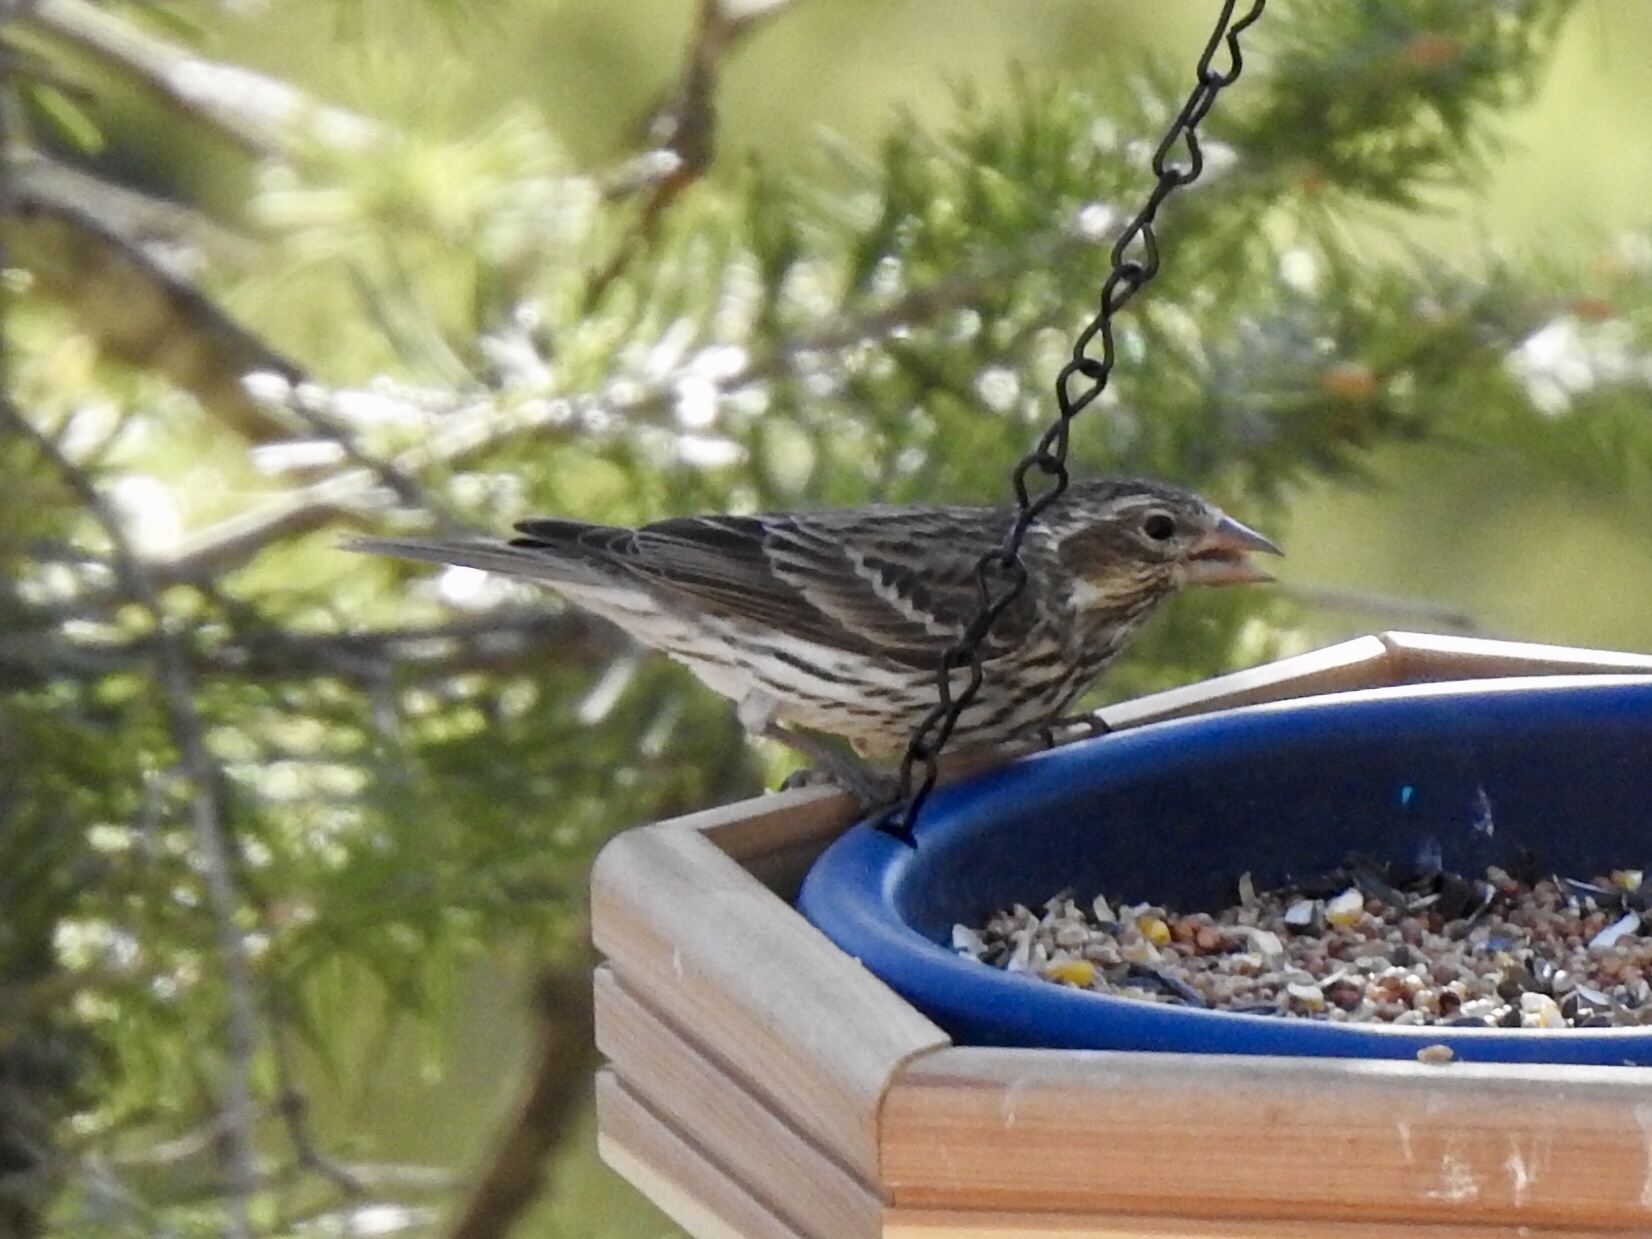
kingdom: Animalia
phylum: Chordata
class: Aves
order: Passeriformes
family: Fringillidae
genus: Haemorhous
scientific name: Haemorhous cassinii
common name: Cassin's finch
